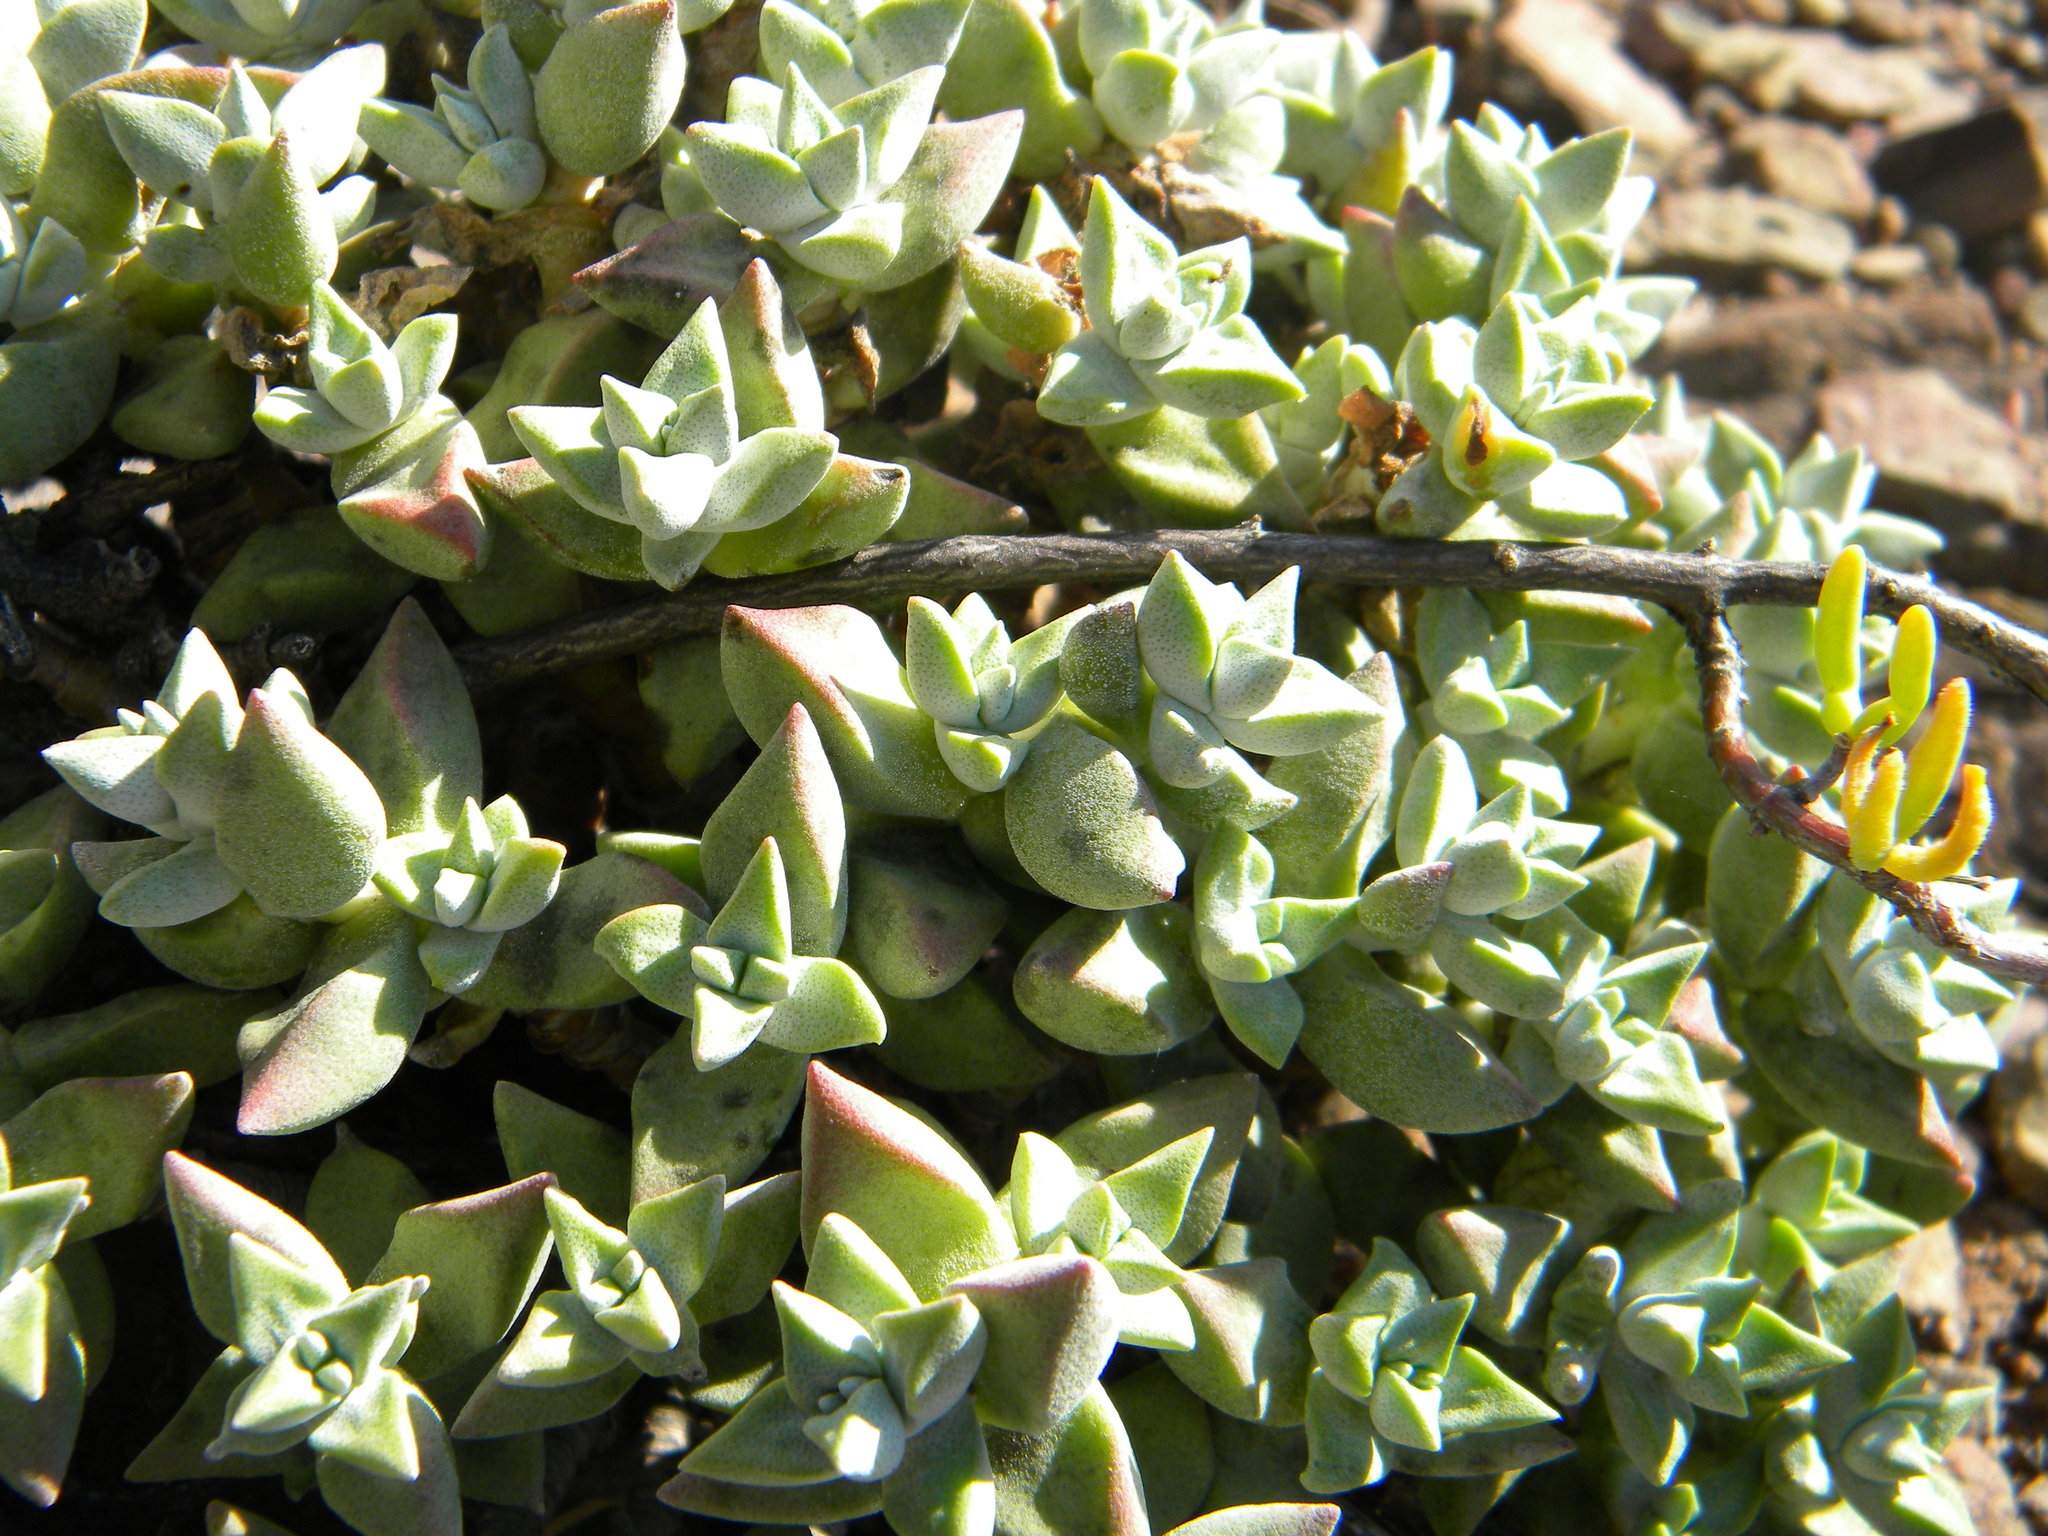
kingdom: Plantae
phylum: Tracheophyta
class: Magnoliopsida
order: Saxifragales
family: Crassulaceae
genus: Crassula
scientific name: Crassula deltoidea
